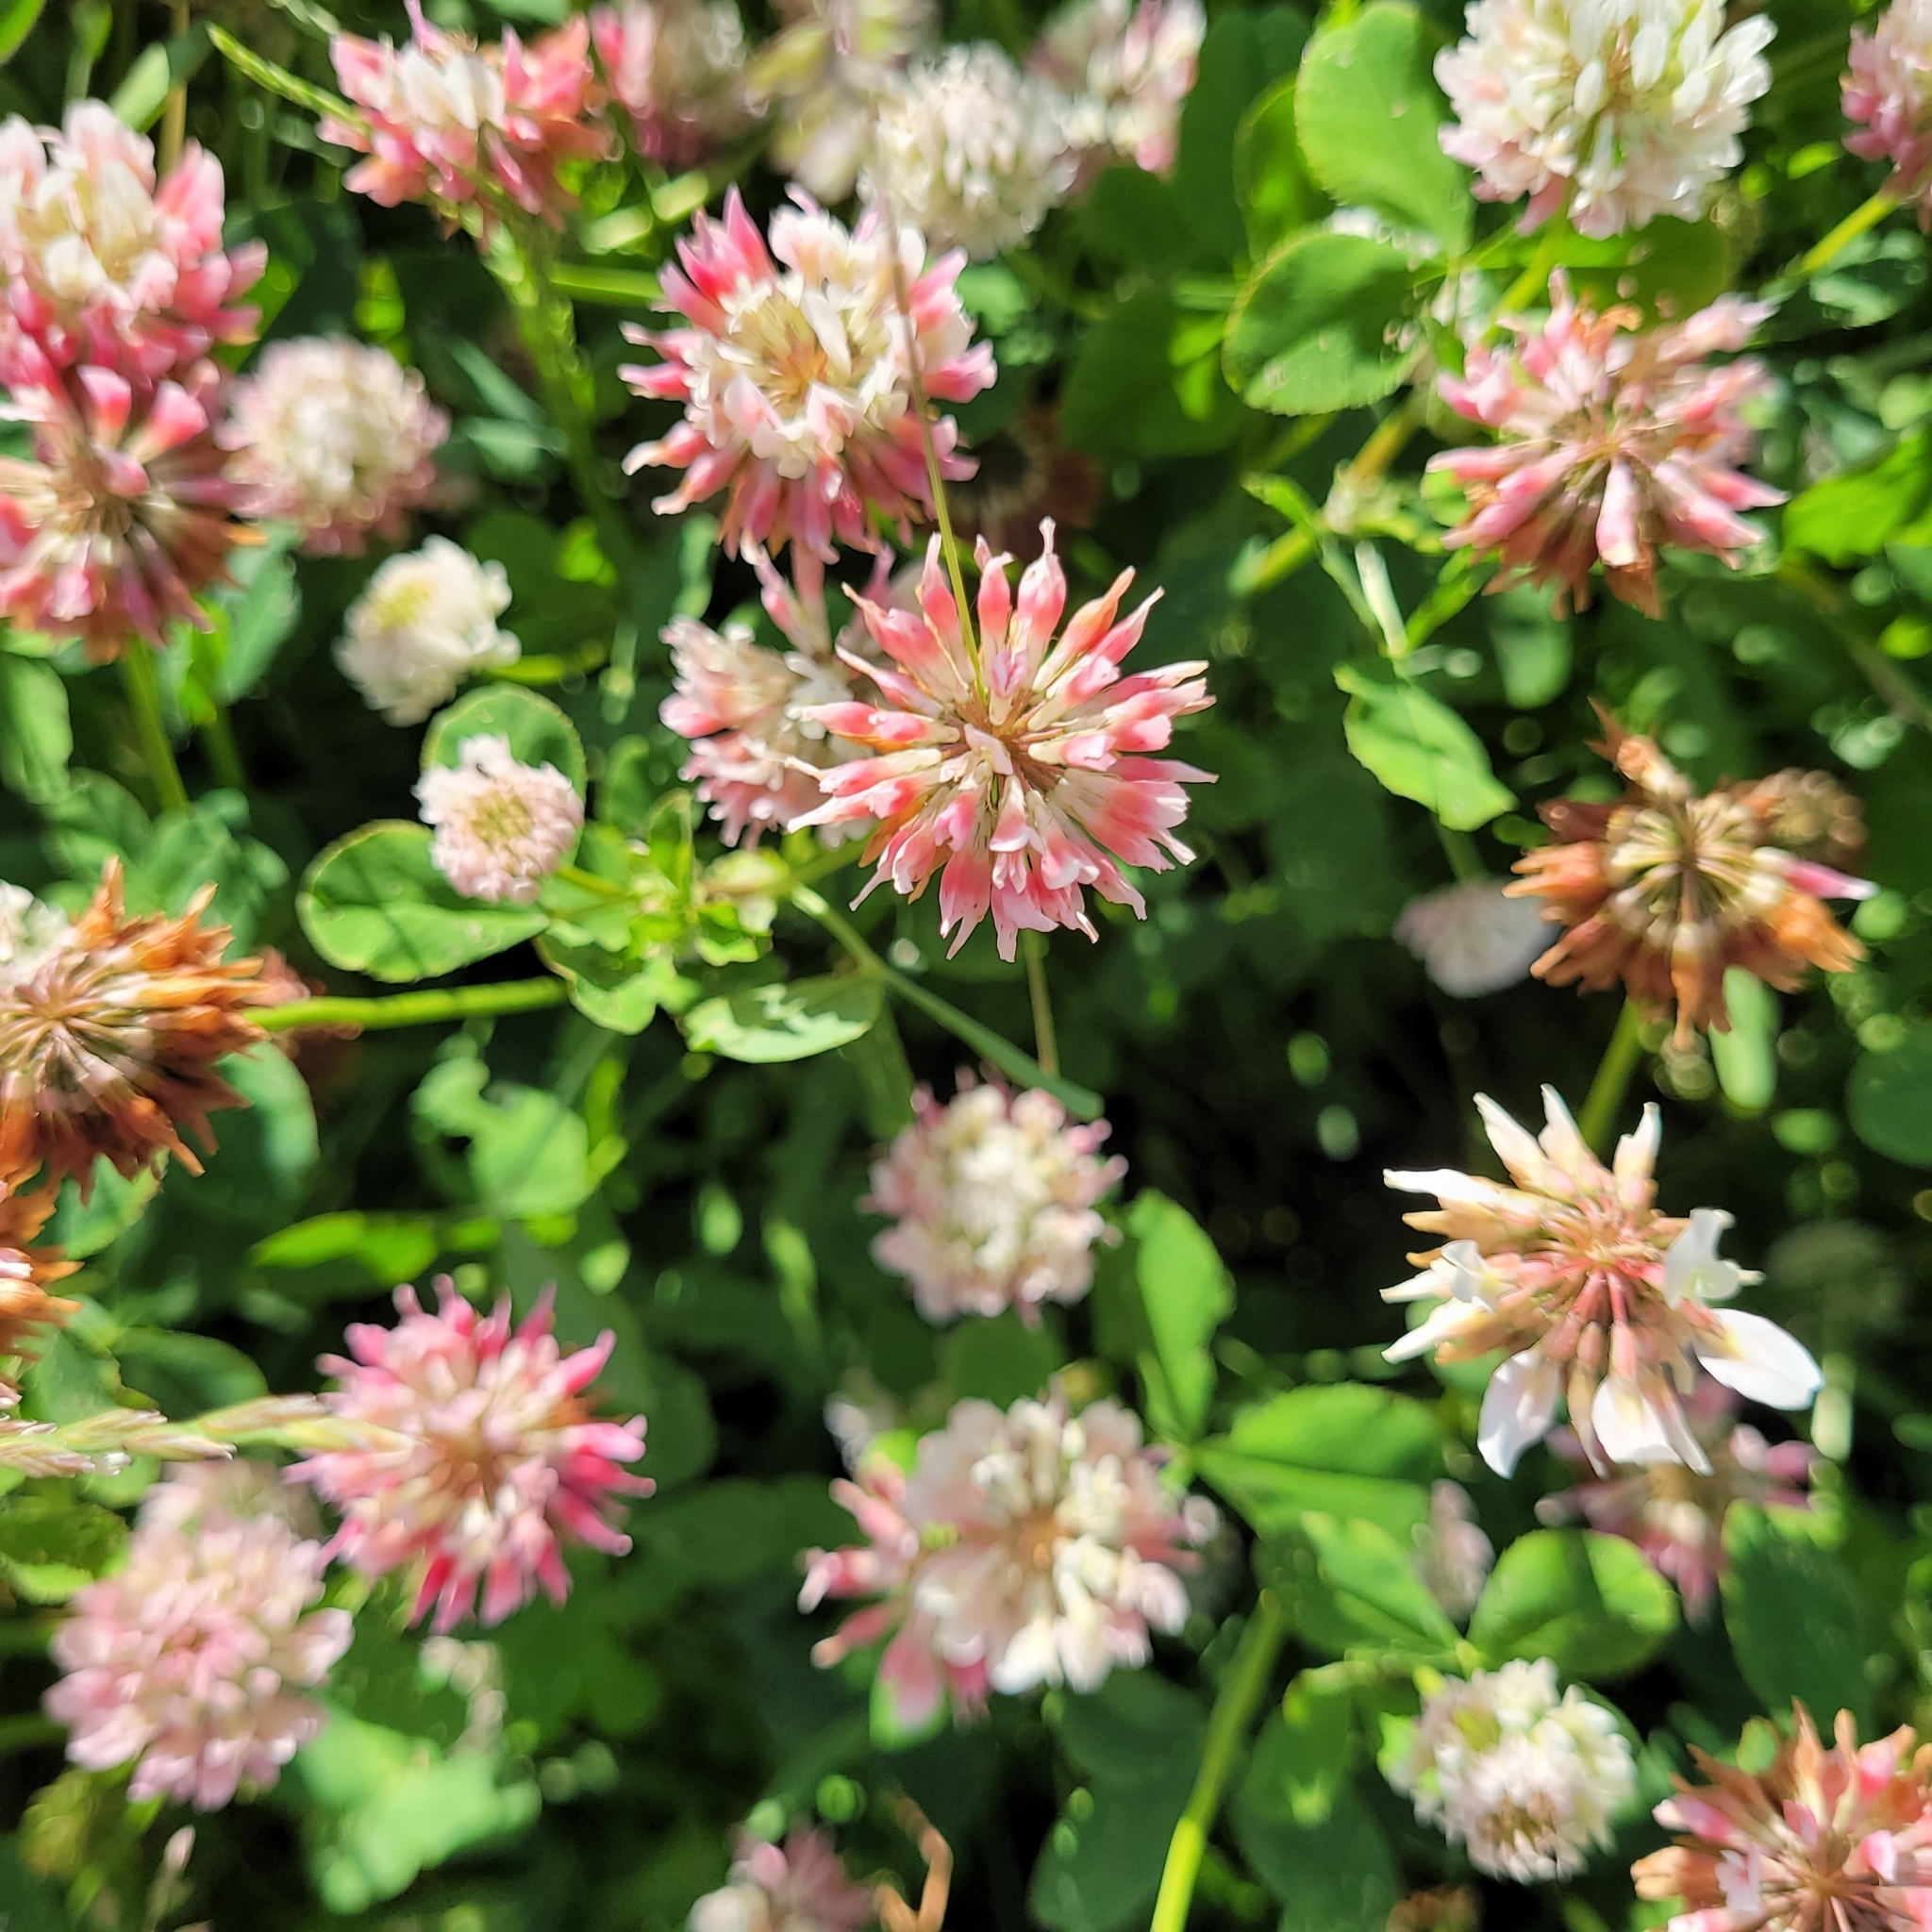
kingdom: Plantae
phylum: Tracheophyta
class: Magnoliopsida
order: Fabales
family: Fabaceae
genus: Trifolium
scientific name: Trifolium hybridum
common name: Alsike clover
